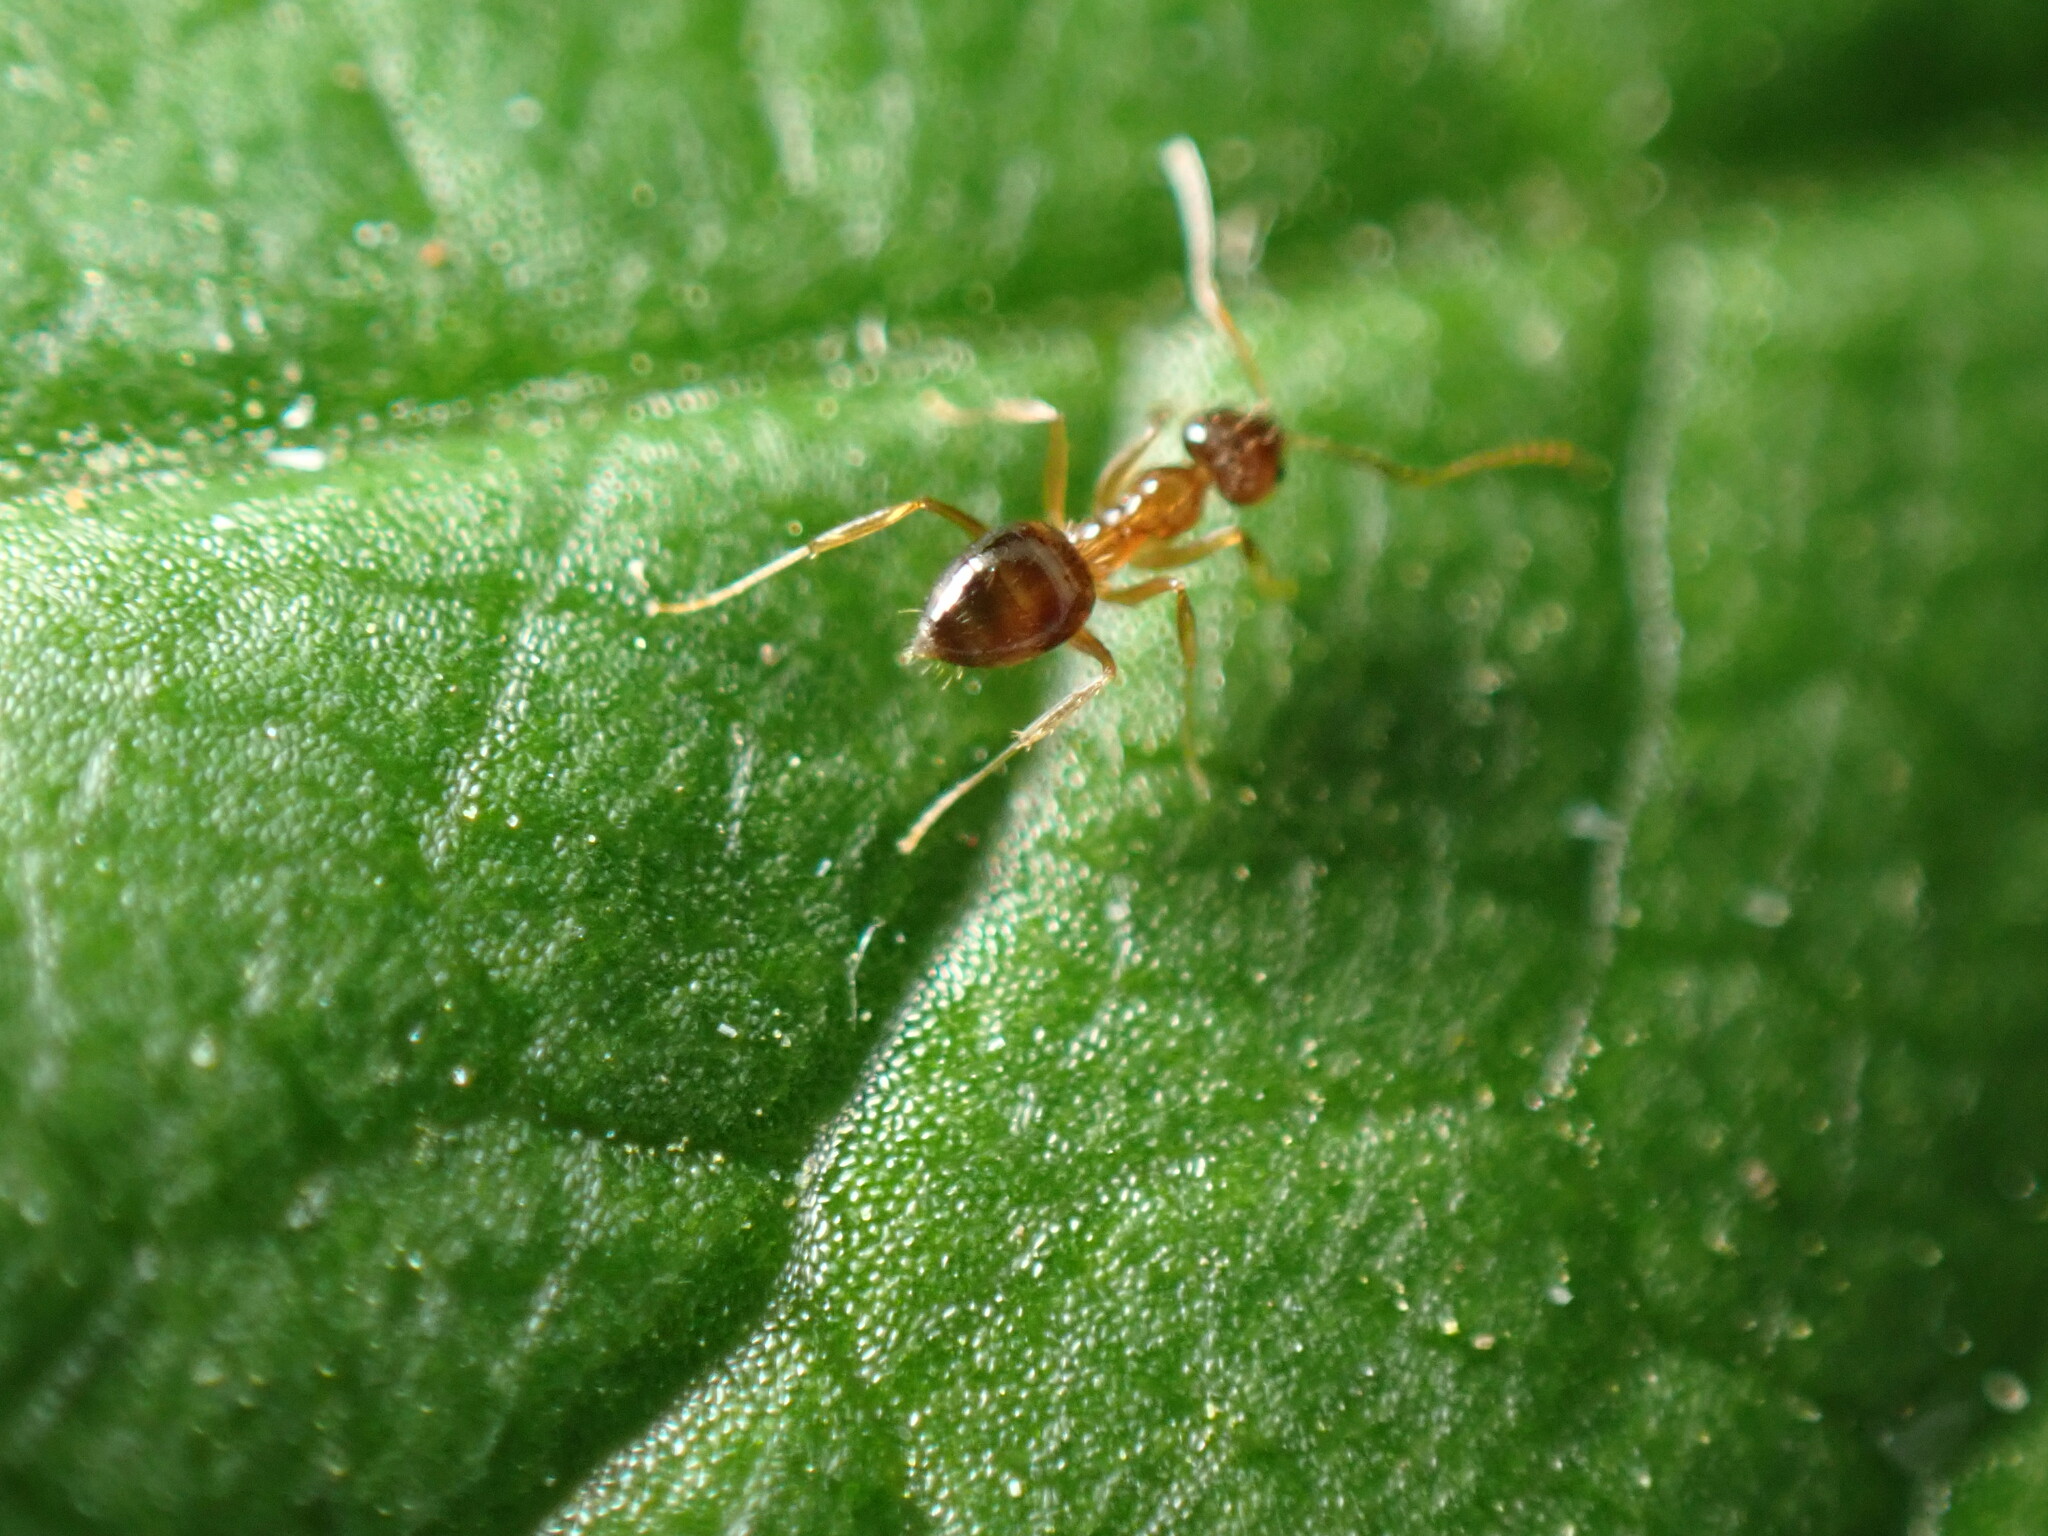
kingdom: Animalia
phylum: Arthropoda
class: Insecta
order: Hymenoptera
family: Formicidae
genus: Paratrechina
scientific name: Paratrechina flavipes
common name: Eastern asian formicine ant
